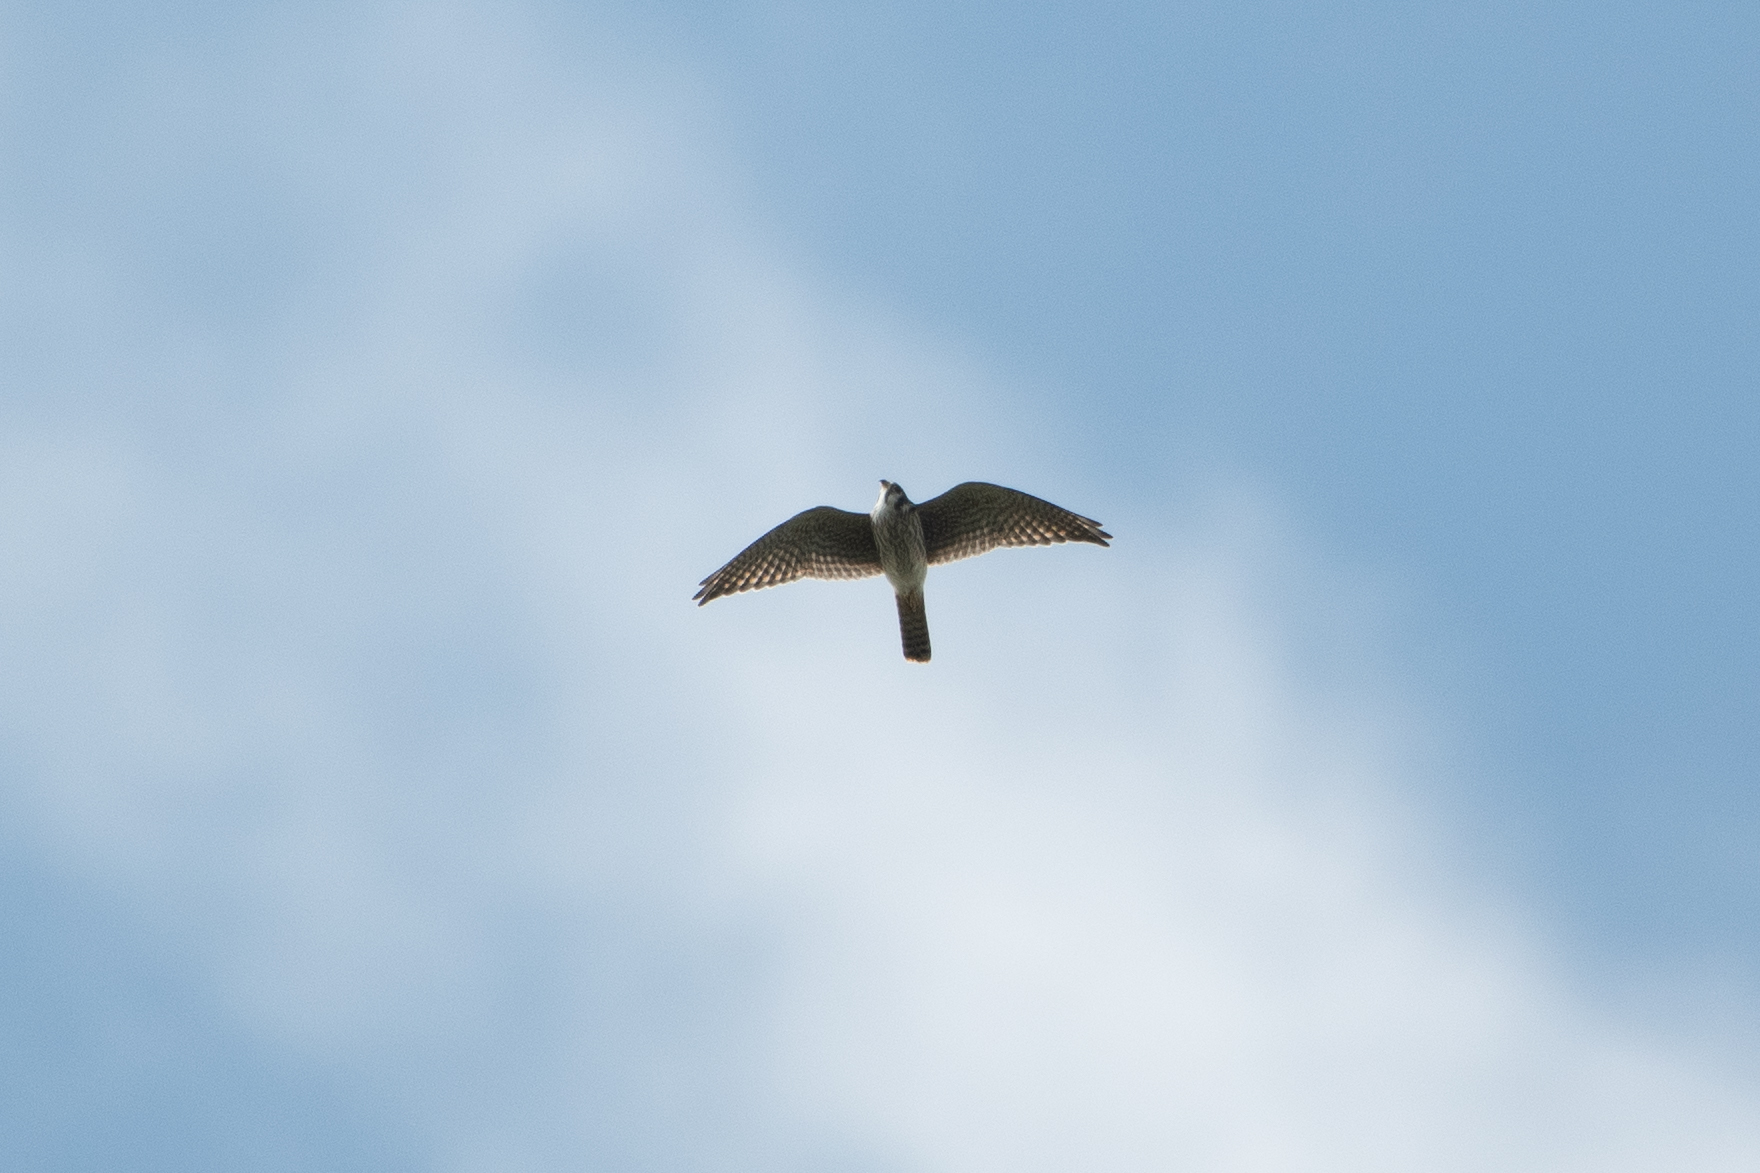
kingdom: Animalia
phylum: Chordata
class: Aves
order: Falconiformes
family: Falconidae
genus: Falco
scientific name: Falco sparverius
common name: American kestrel
